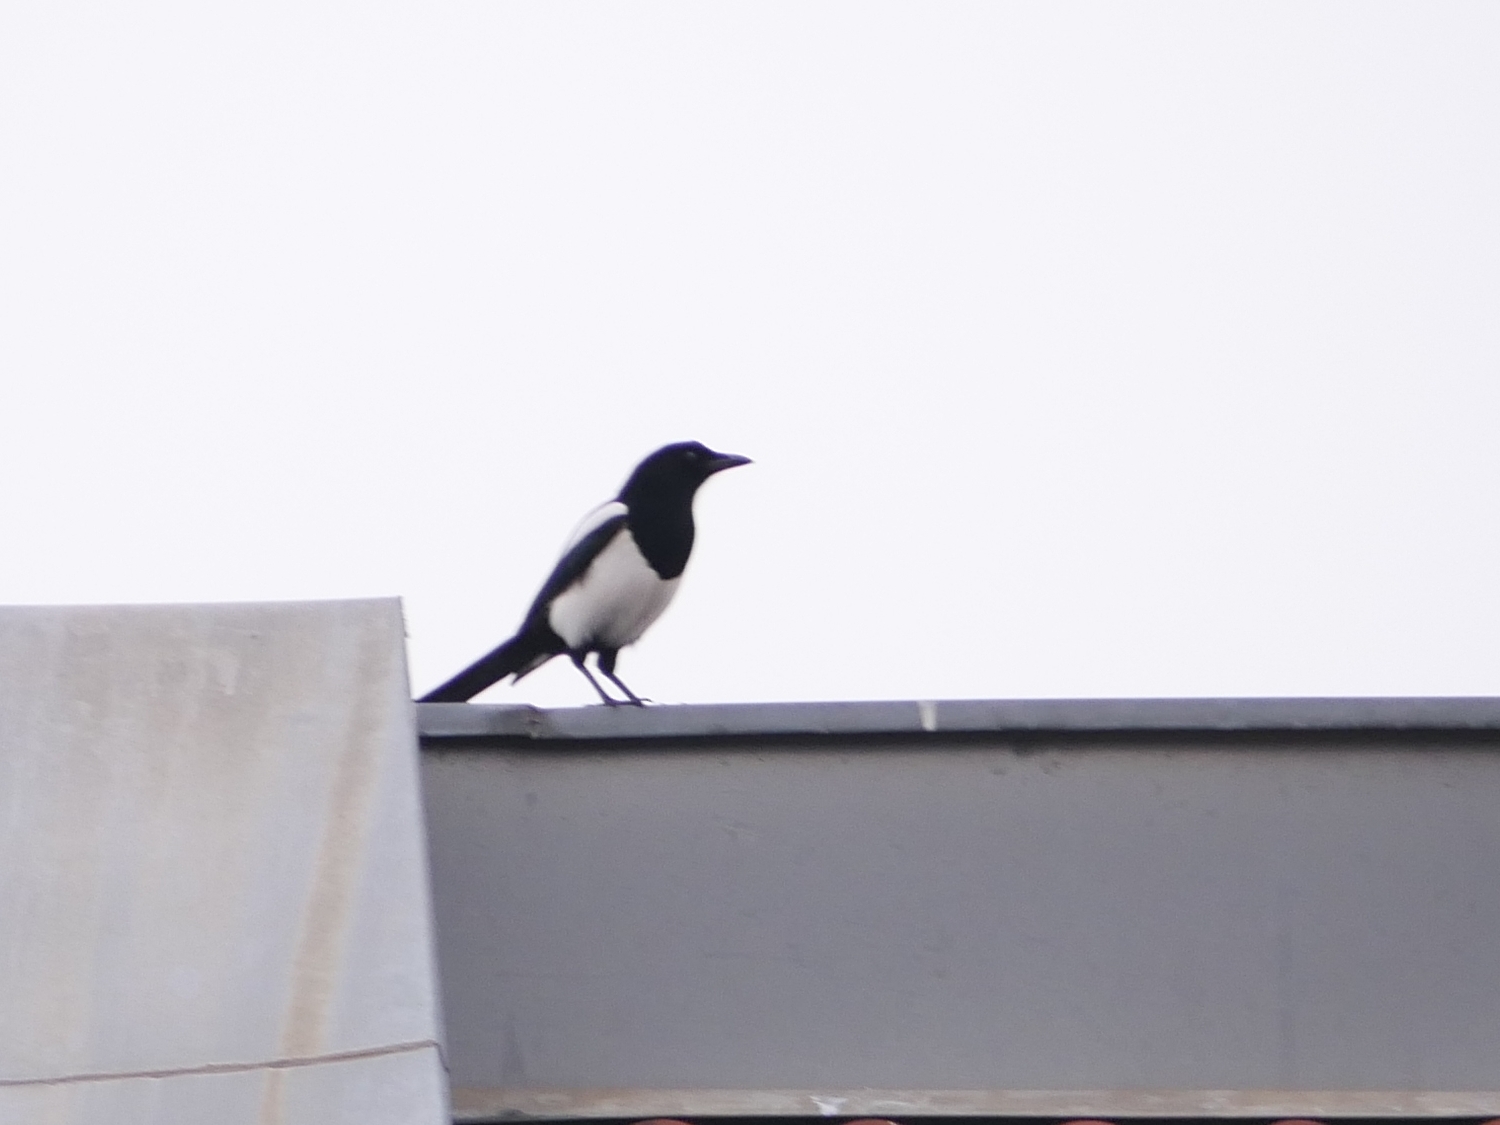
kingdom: Animalia
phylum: Chordata
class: Aves
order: Passeriformes
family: Corvidae
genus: Pica
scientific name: Pica pica
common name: Eurasian magpie
